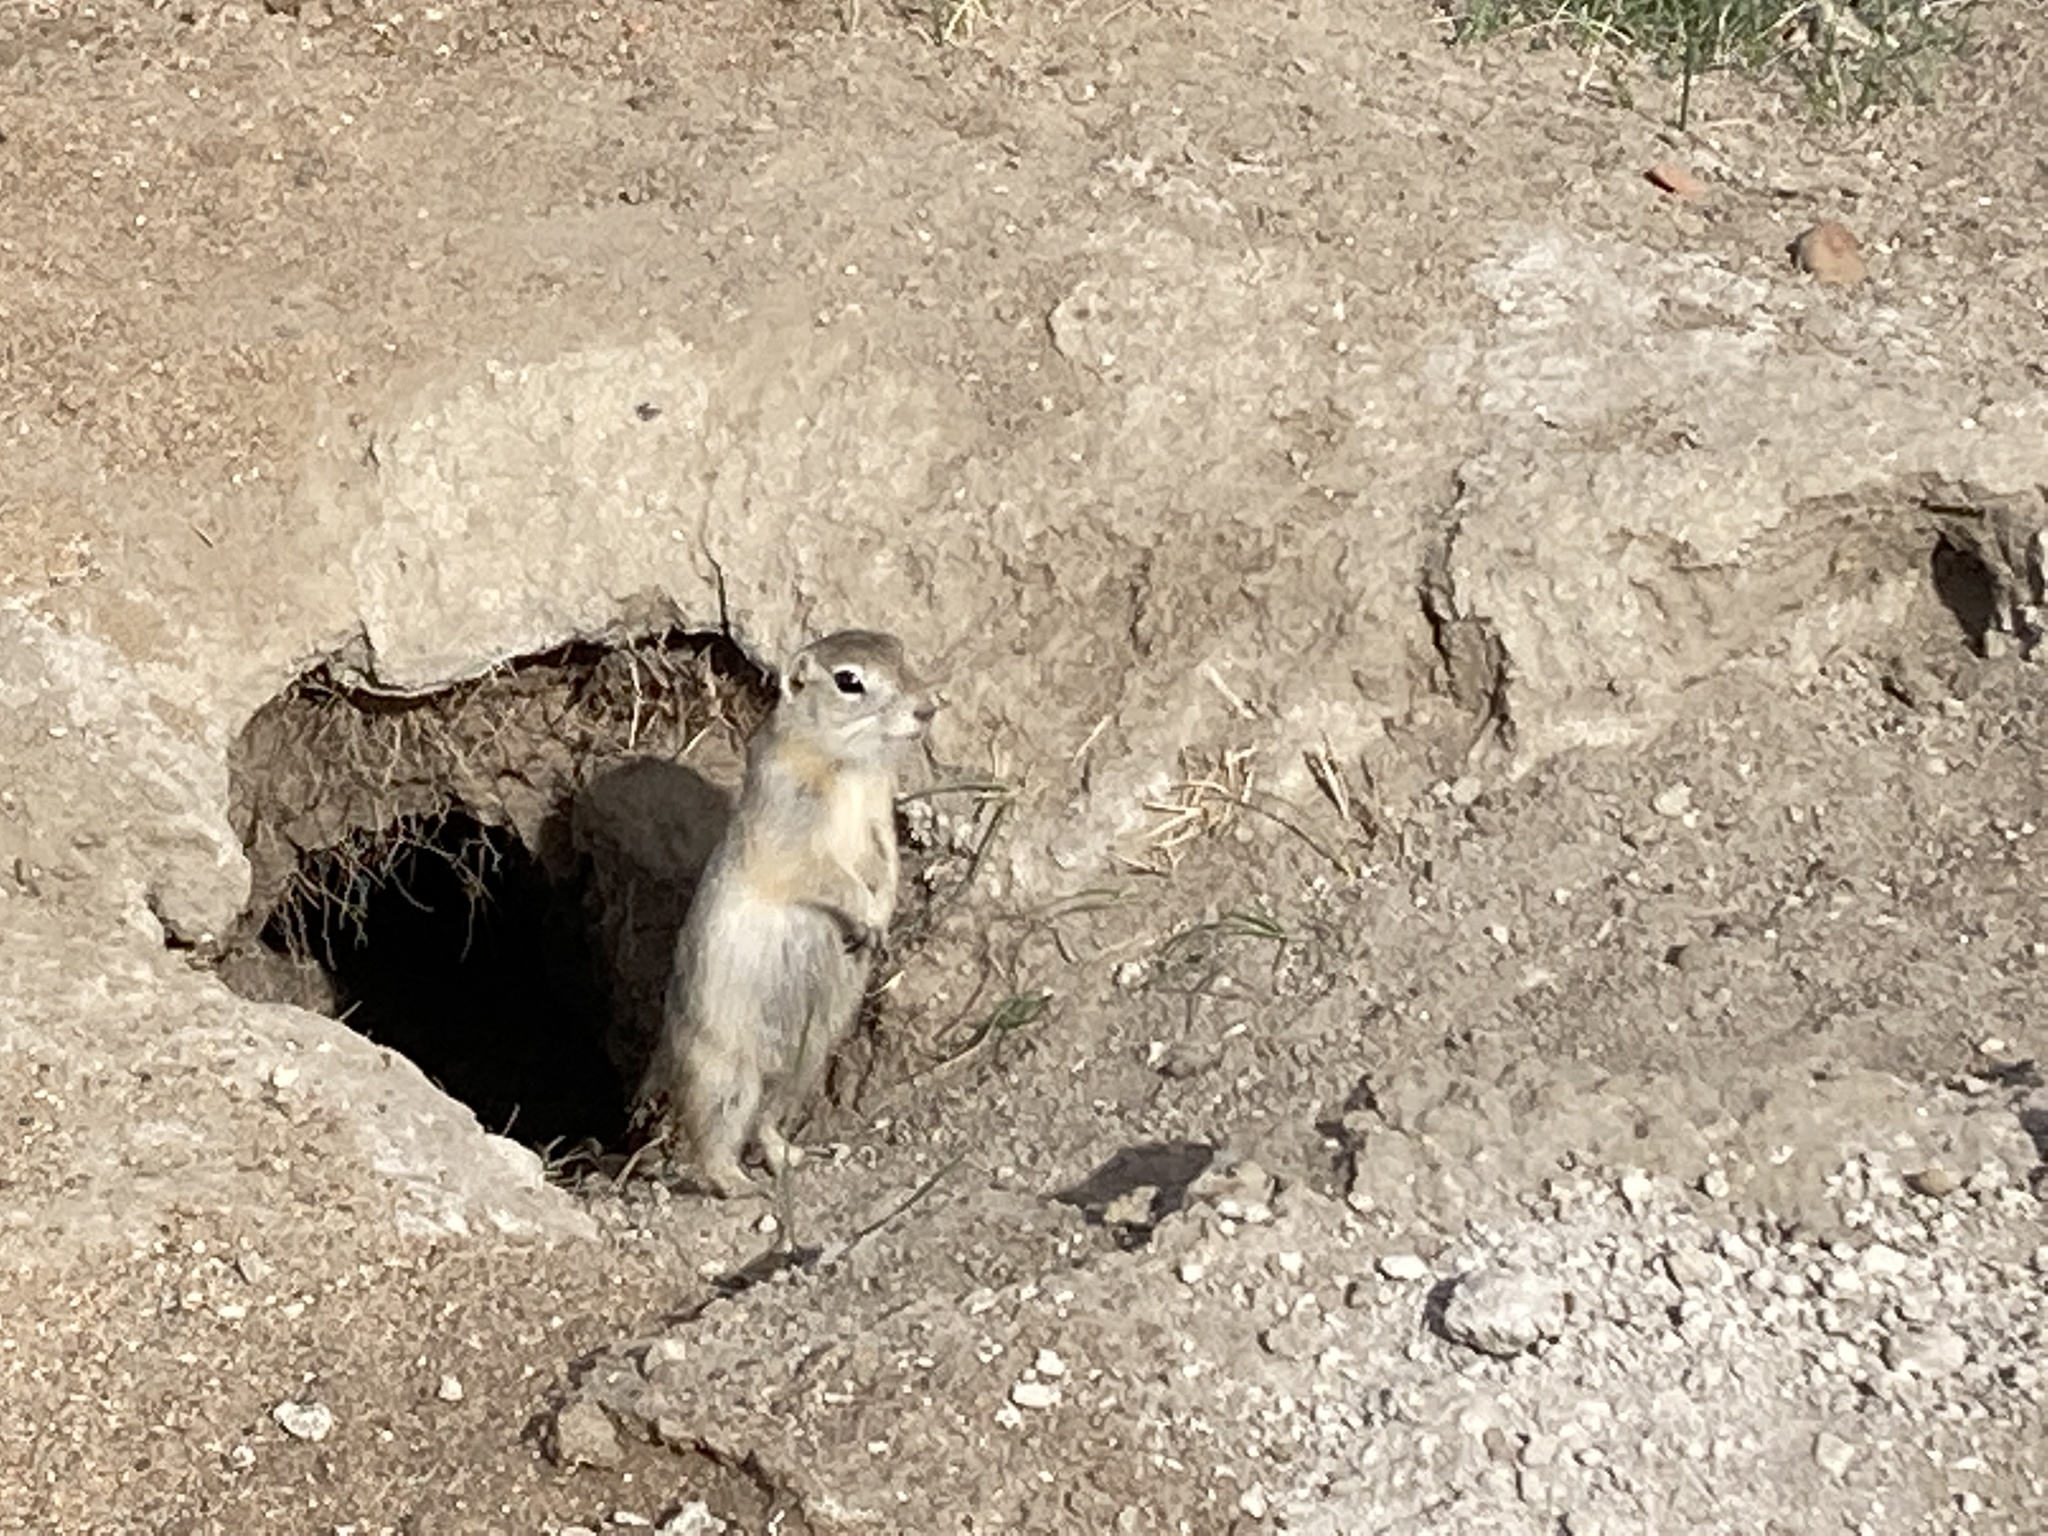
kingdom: Animalia
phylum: Chordata
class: Mammalia
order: Rodentia
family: Sciuridae
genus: Urocitellus
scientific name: Urocitellus richardsonii
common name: Richardson's ground squirrel
